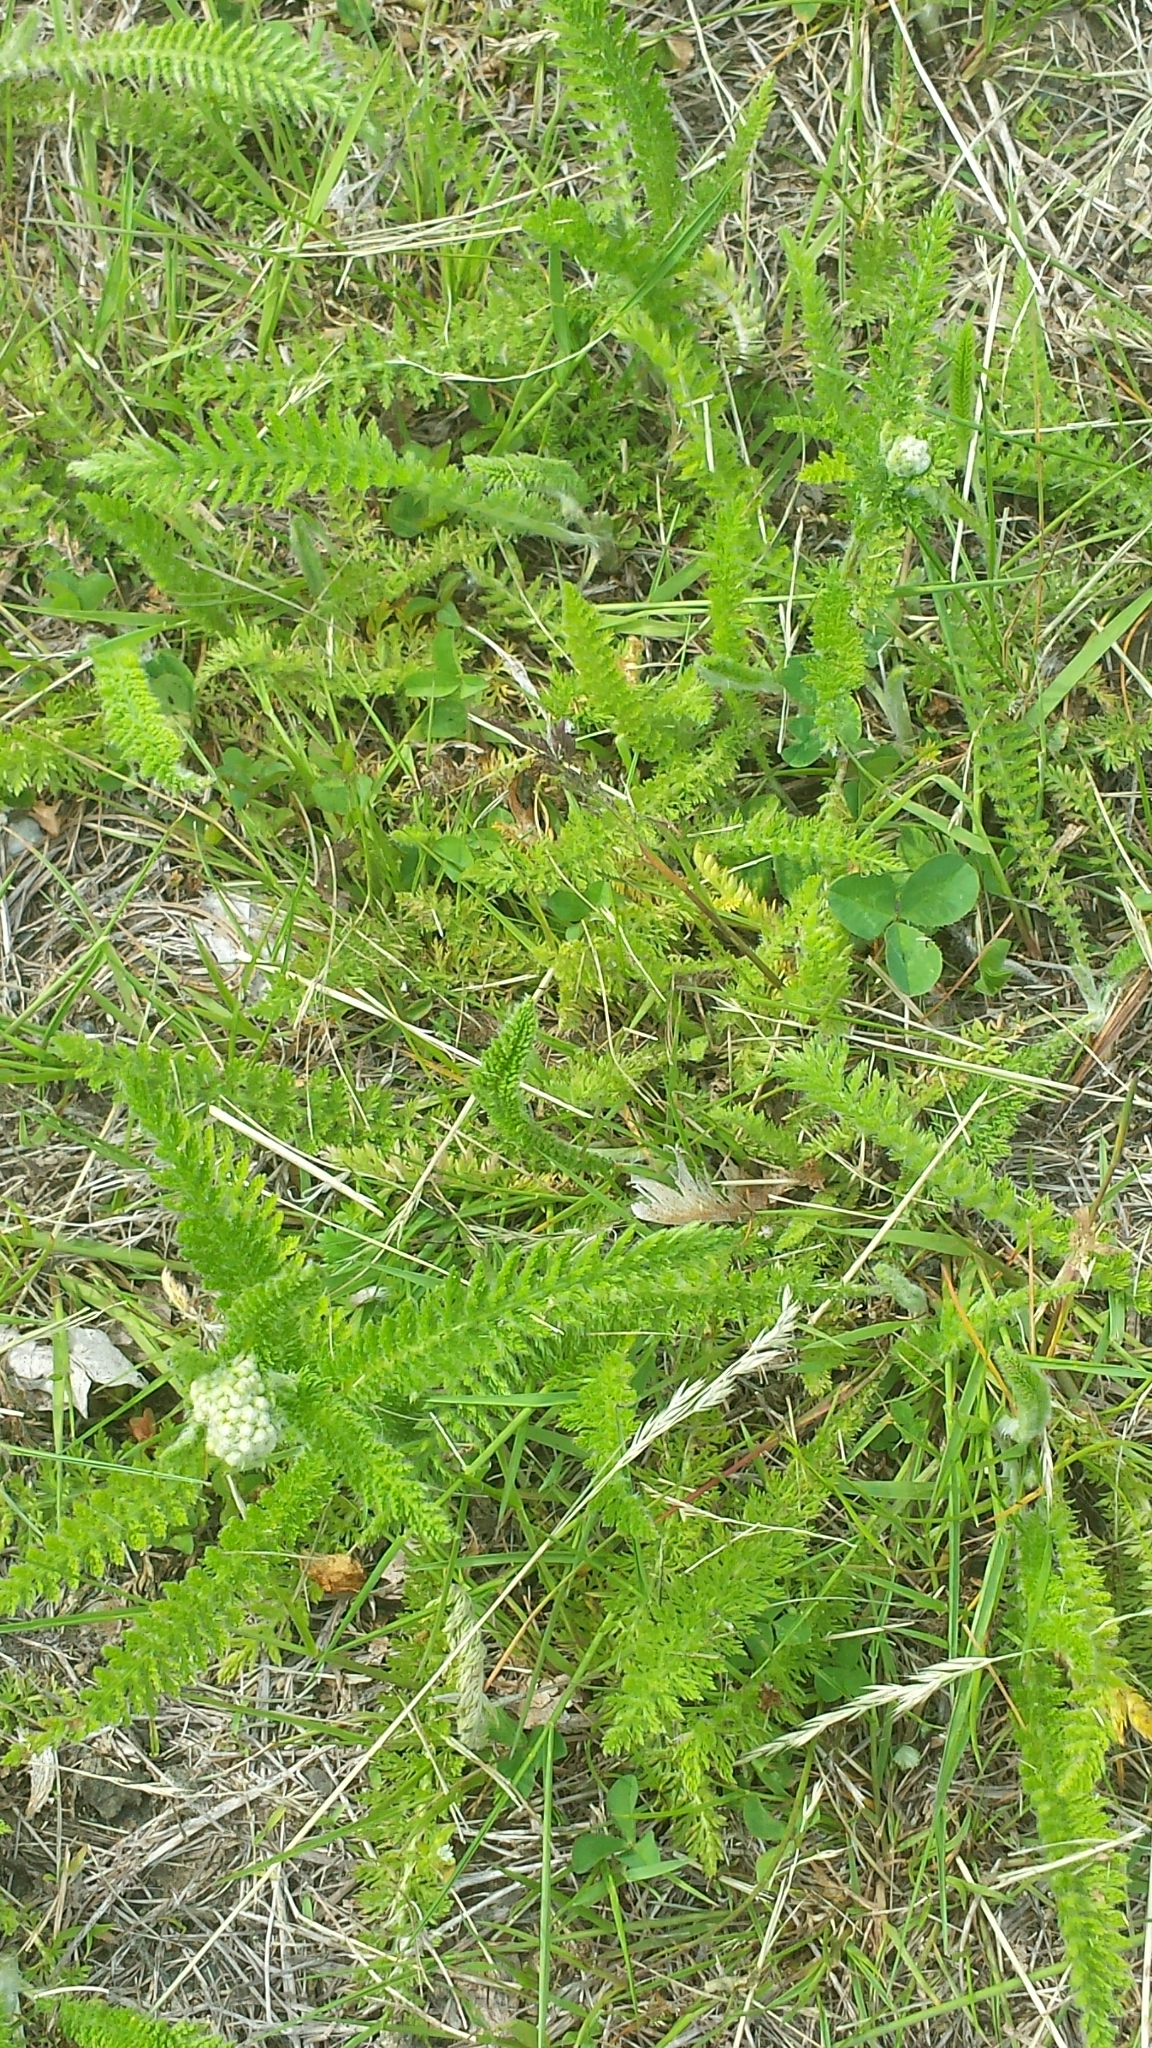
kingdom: Plantae
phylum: Tracheophyta
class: Magnoliopsida
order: Asterales
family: Asteraceae
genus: Achillea
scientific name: Achillea millefolium
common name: Yarrow
